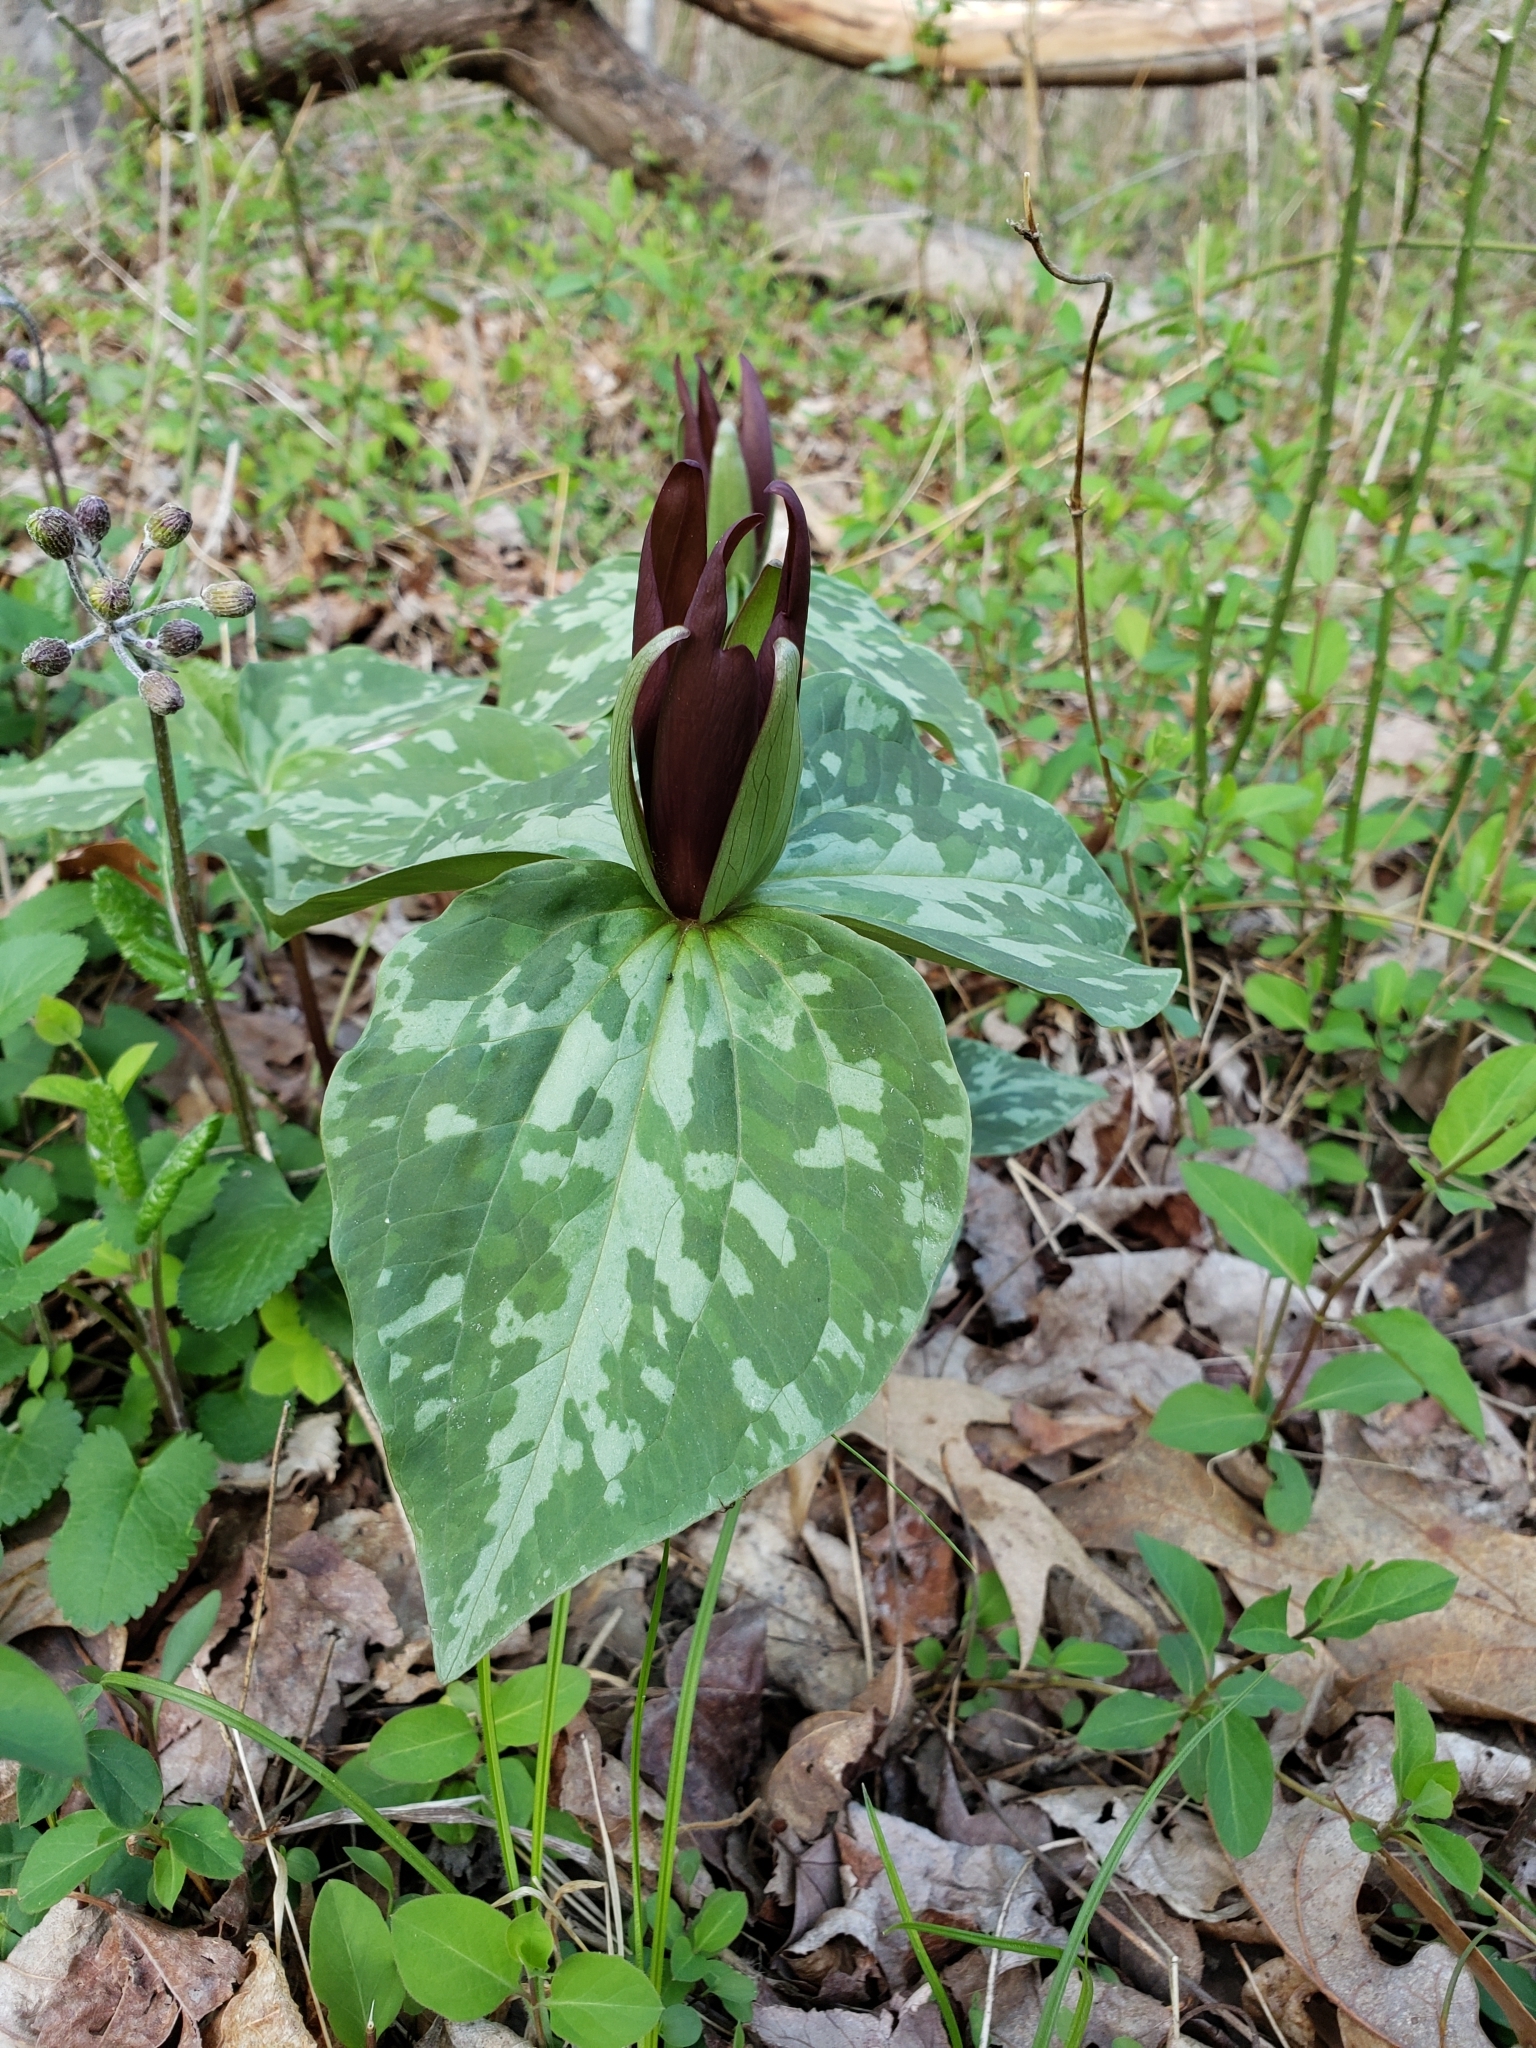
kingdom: Plantae
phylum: Tracheophyta
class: Liliopsida
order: Liliales
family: Melanthiaceae
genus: Trillium
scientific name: Trillium cuneatum
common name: Cuneate trillium
